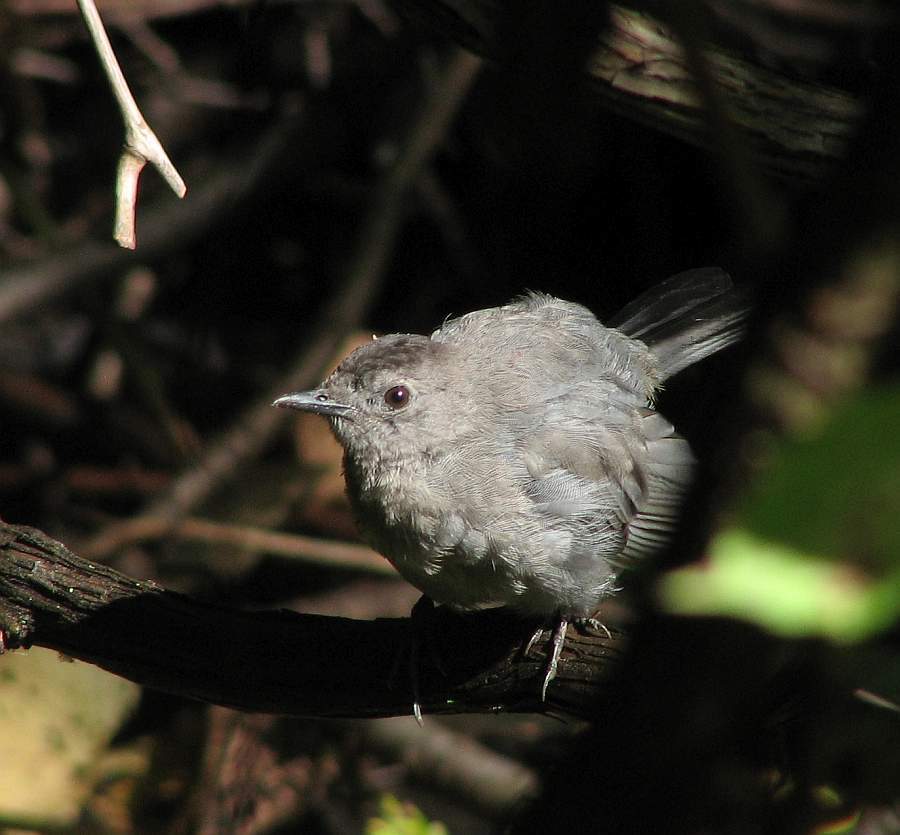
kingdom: Animalia
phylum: Chordata
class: Aves
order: Passeriformes
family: Mimidae
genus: Dumetella
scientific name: Dumetella carolinensis
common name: Gray catbird
